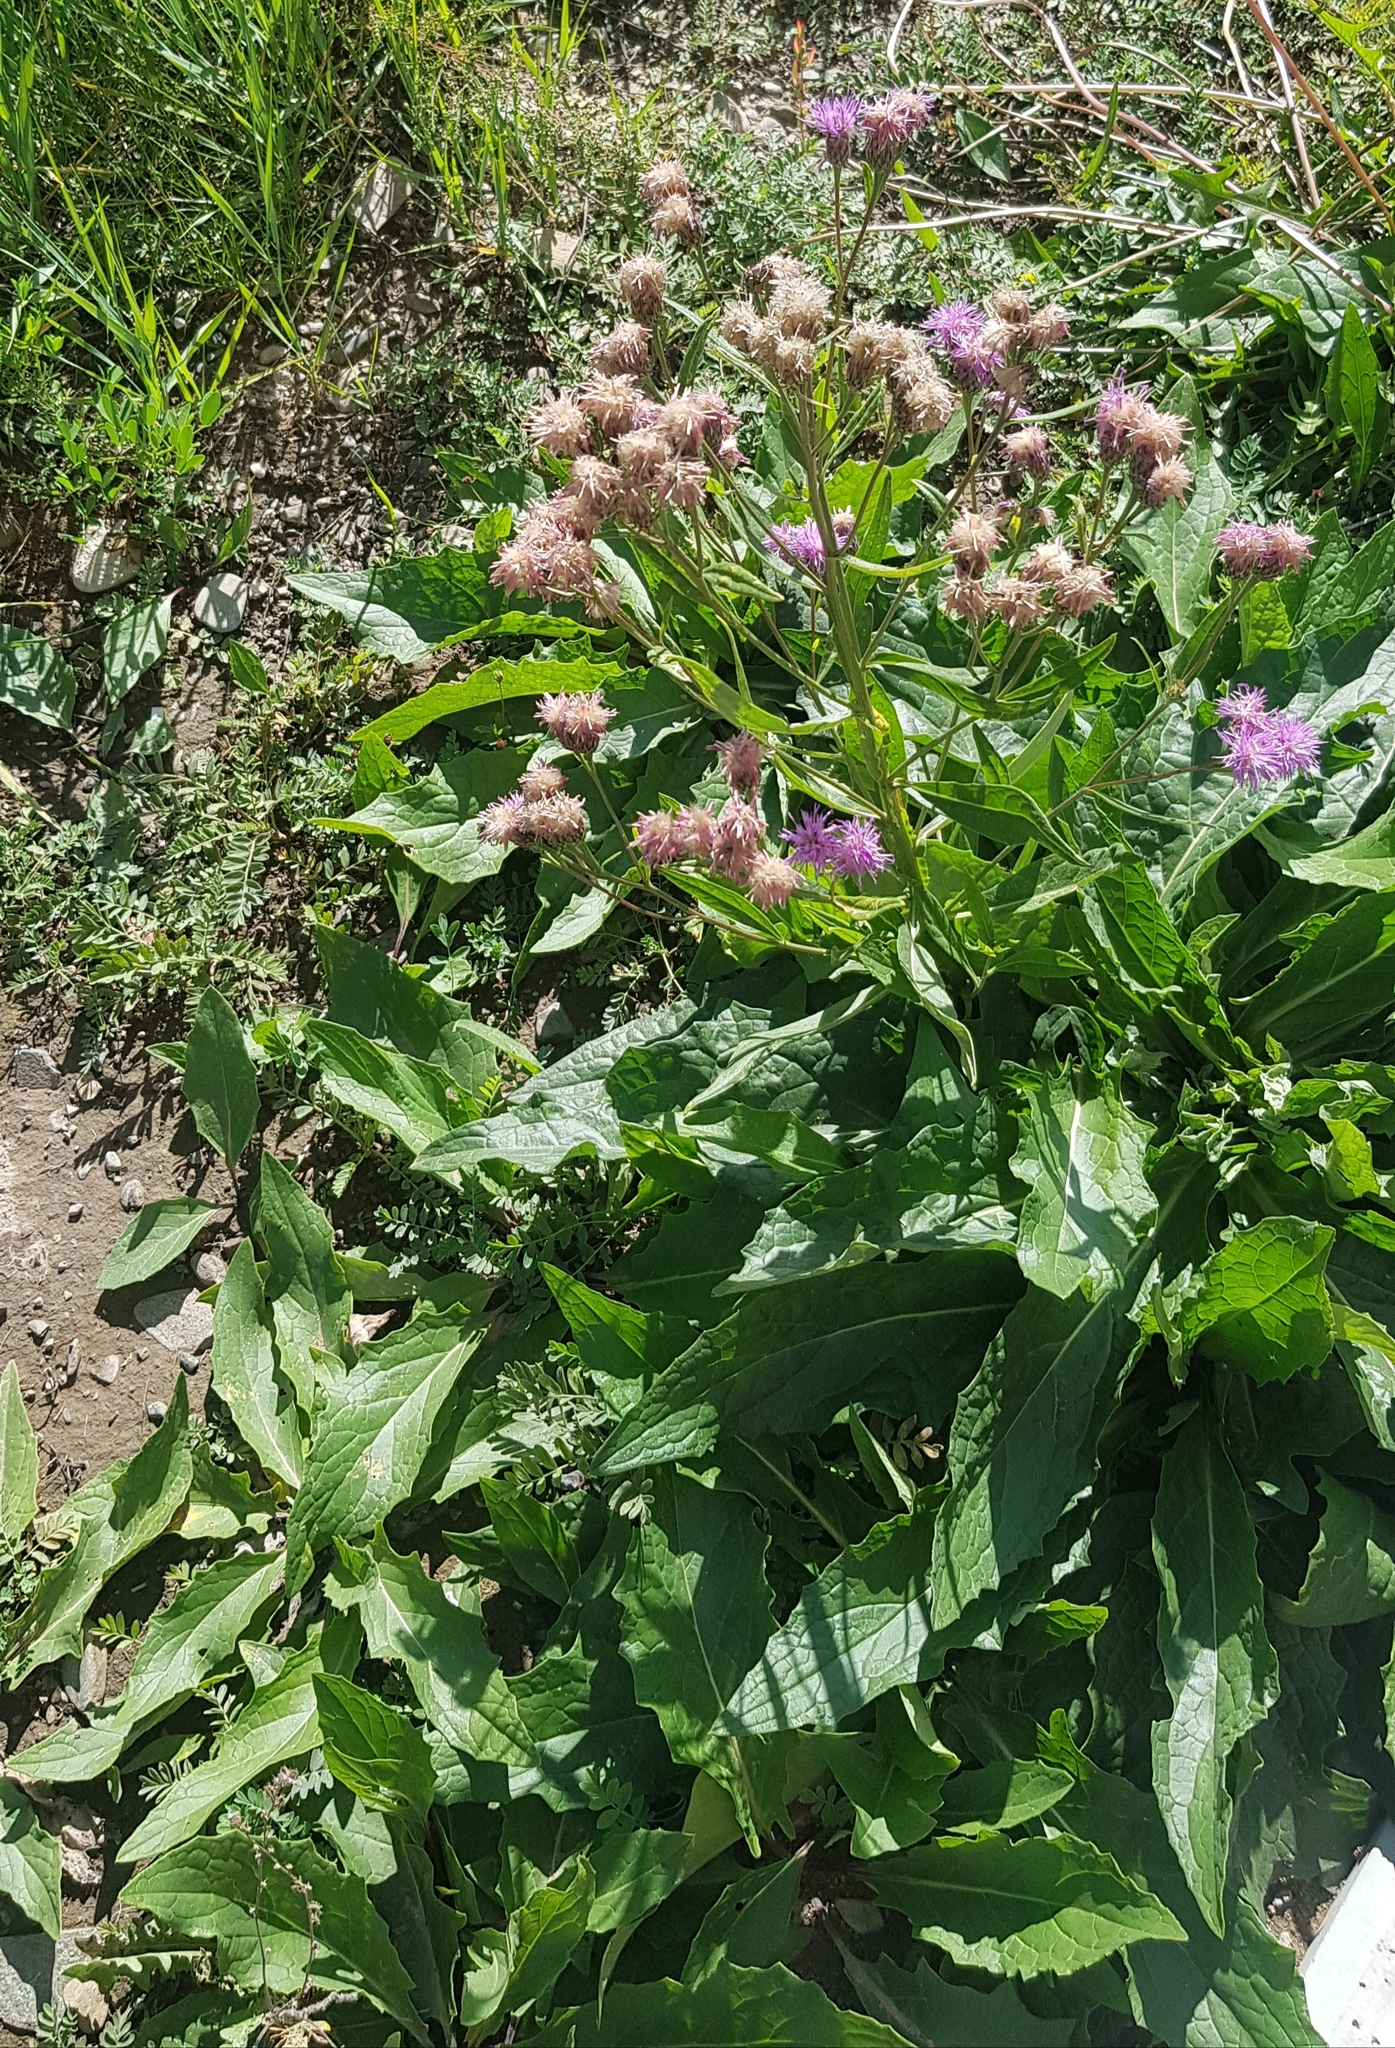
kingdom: Plantae
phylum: Tracheophyta
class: Magnoliopsida
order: Asterales
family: Asteraceae
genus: Saussurea
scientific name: Saussurea amara
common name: Alberta sawwort
